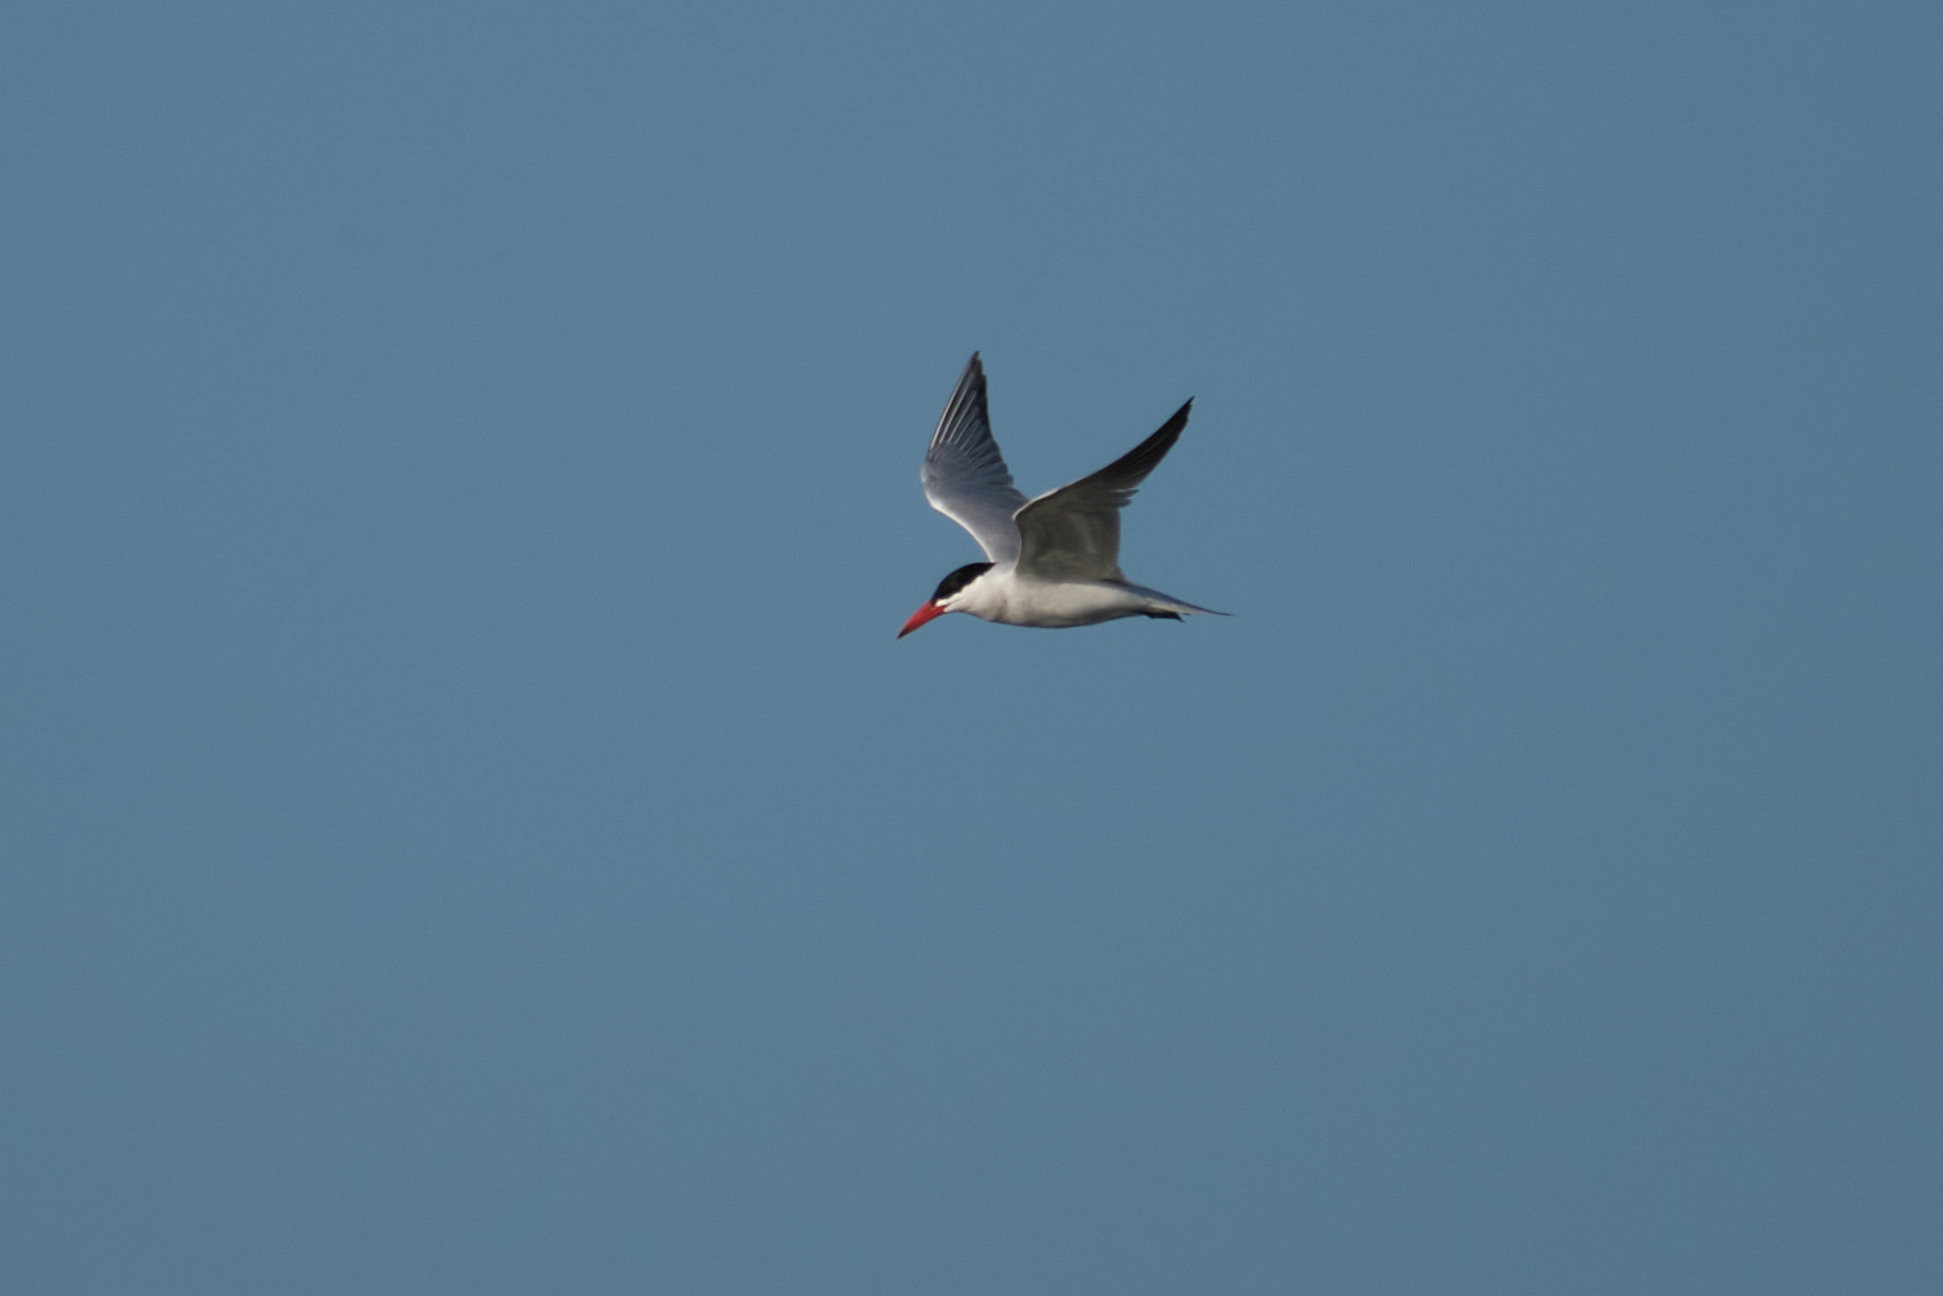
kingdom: Animalia
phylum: Chordata
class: Aves
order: Charadriiformes
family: Laridae
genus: Hydroprogne
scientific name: Hydroprogne caspia
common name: Caspian tern
